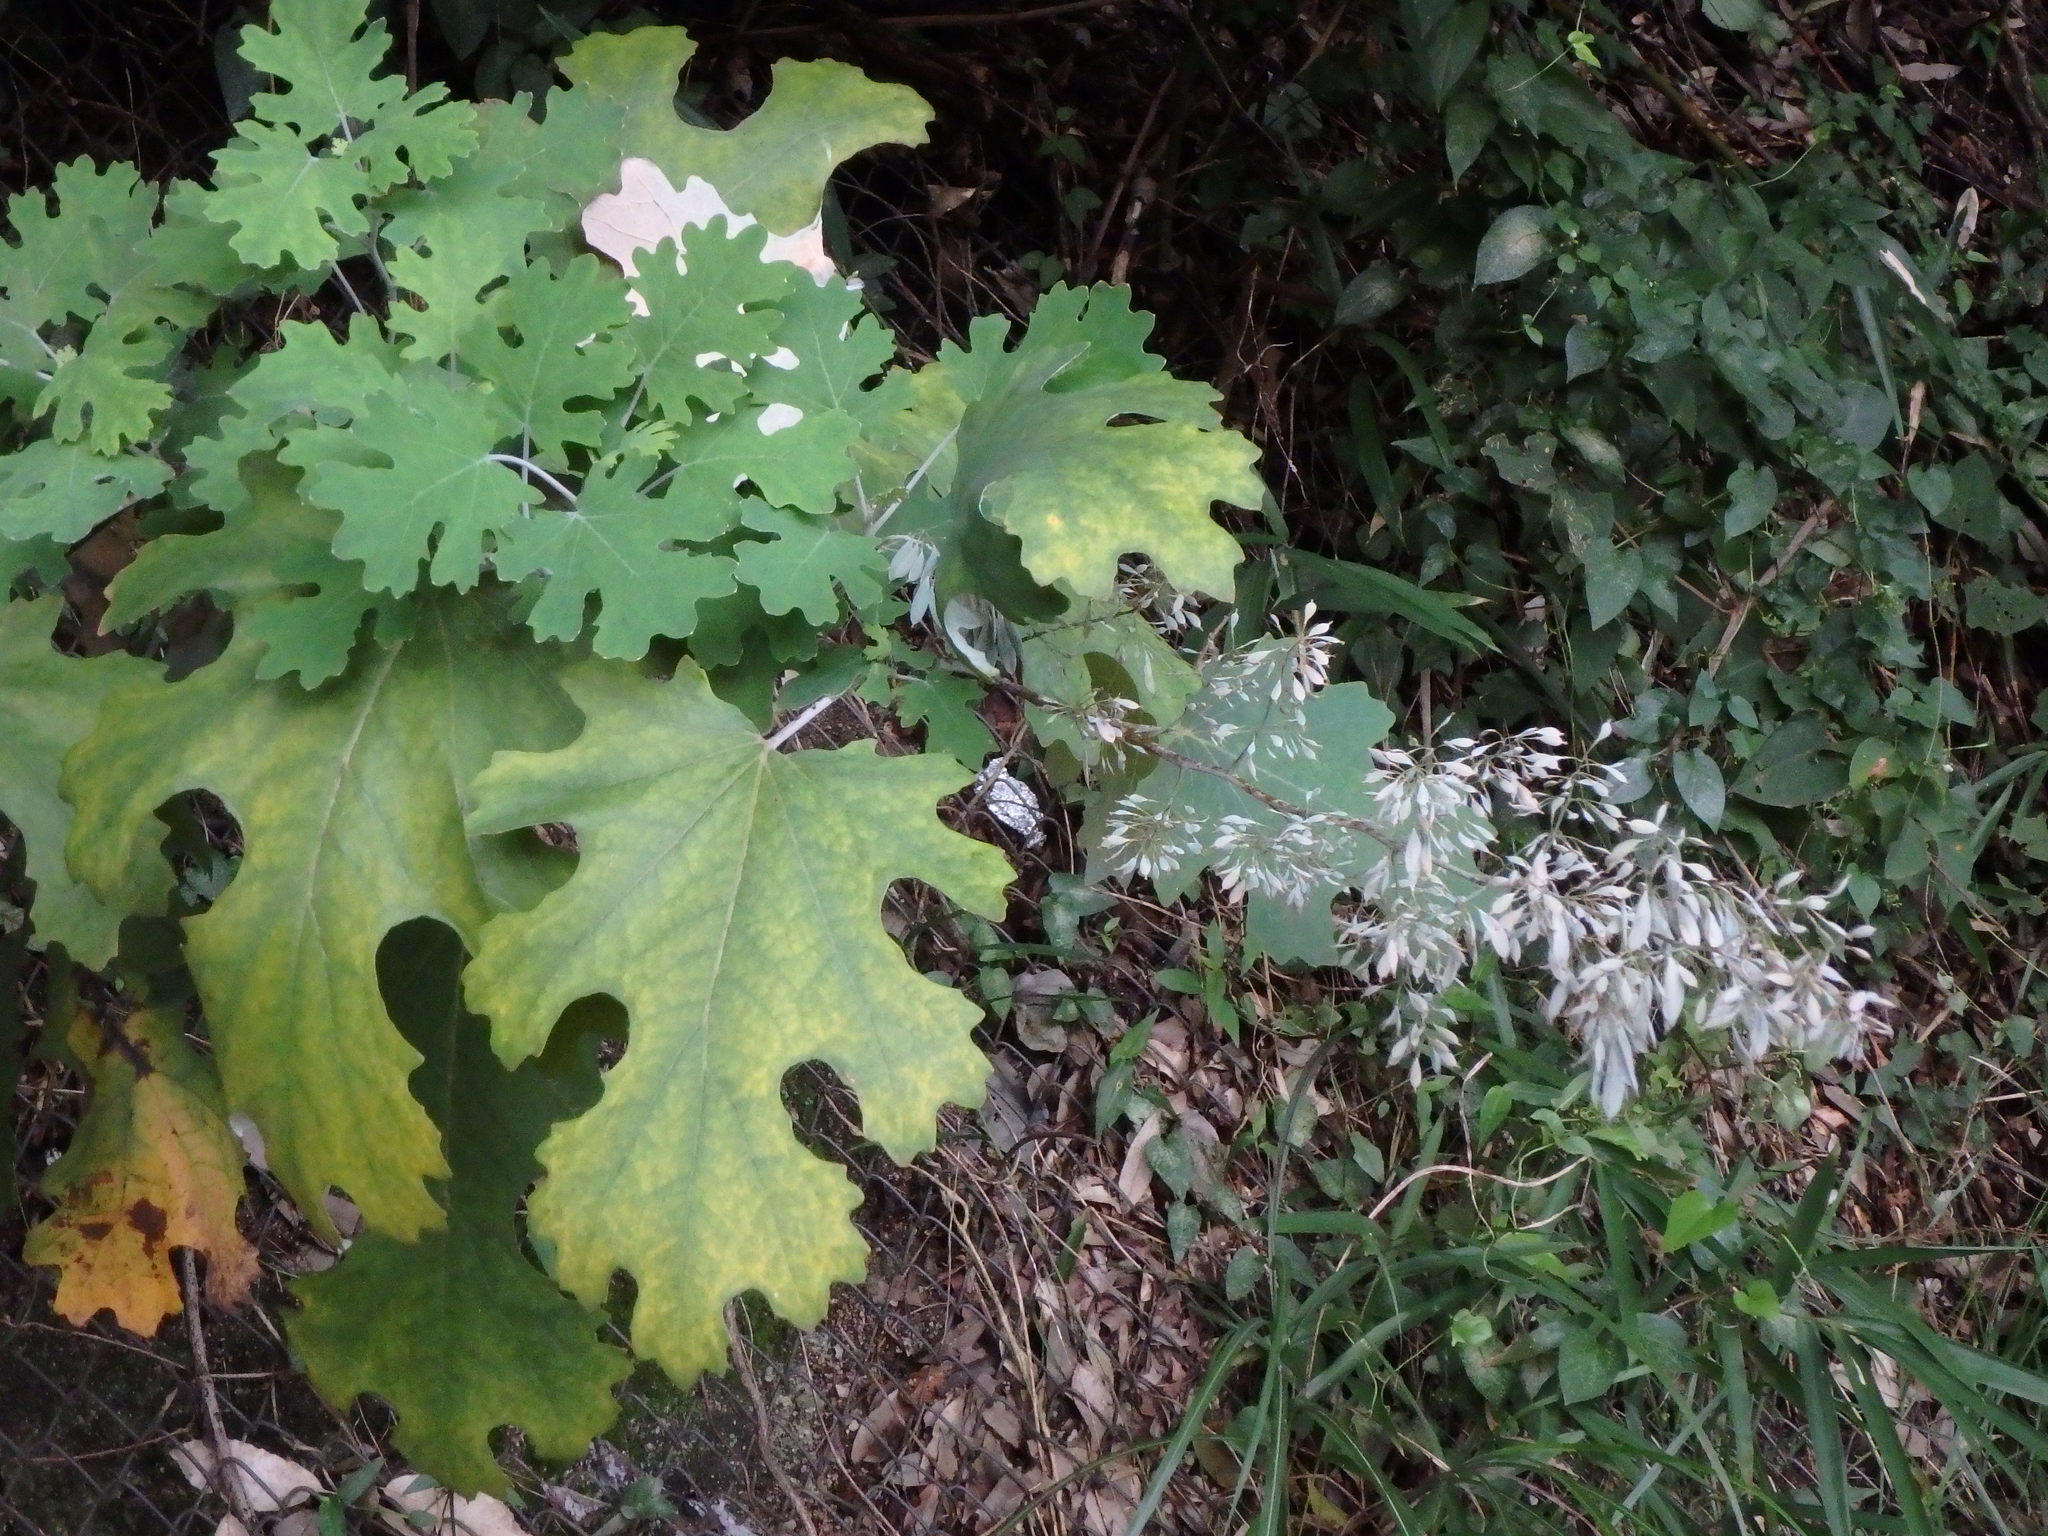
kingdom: Plantae
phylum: Tracheophyta
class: Magnoliopsida
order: Ranunculales
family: Papaveraceae
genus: Macleaya
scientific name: Macleaya cordata
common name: Plume poppy
